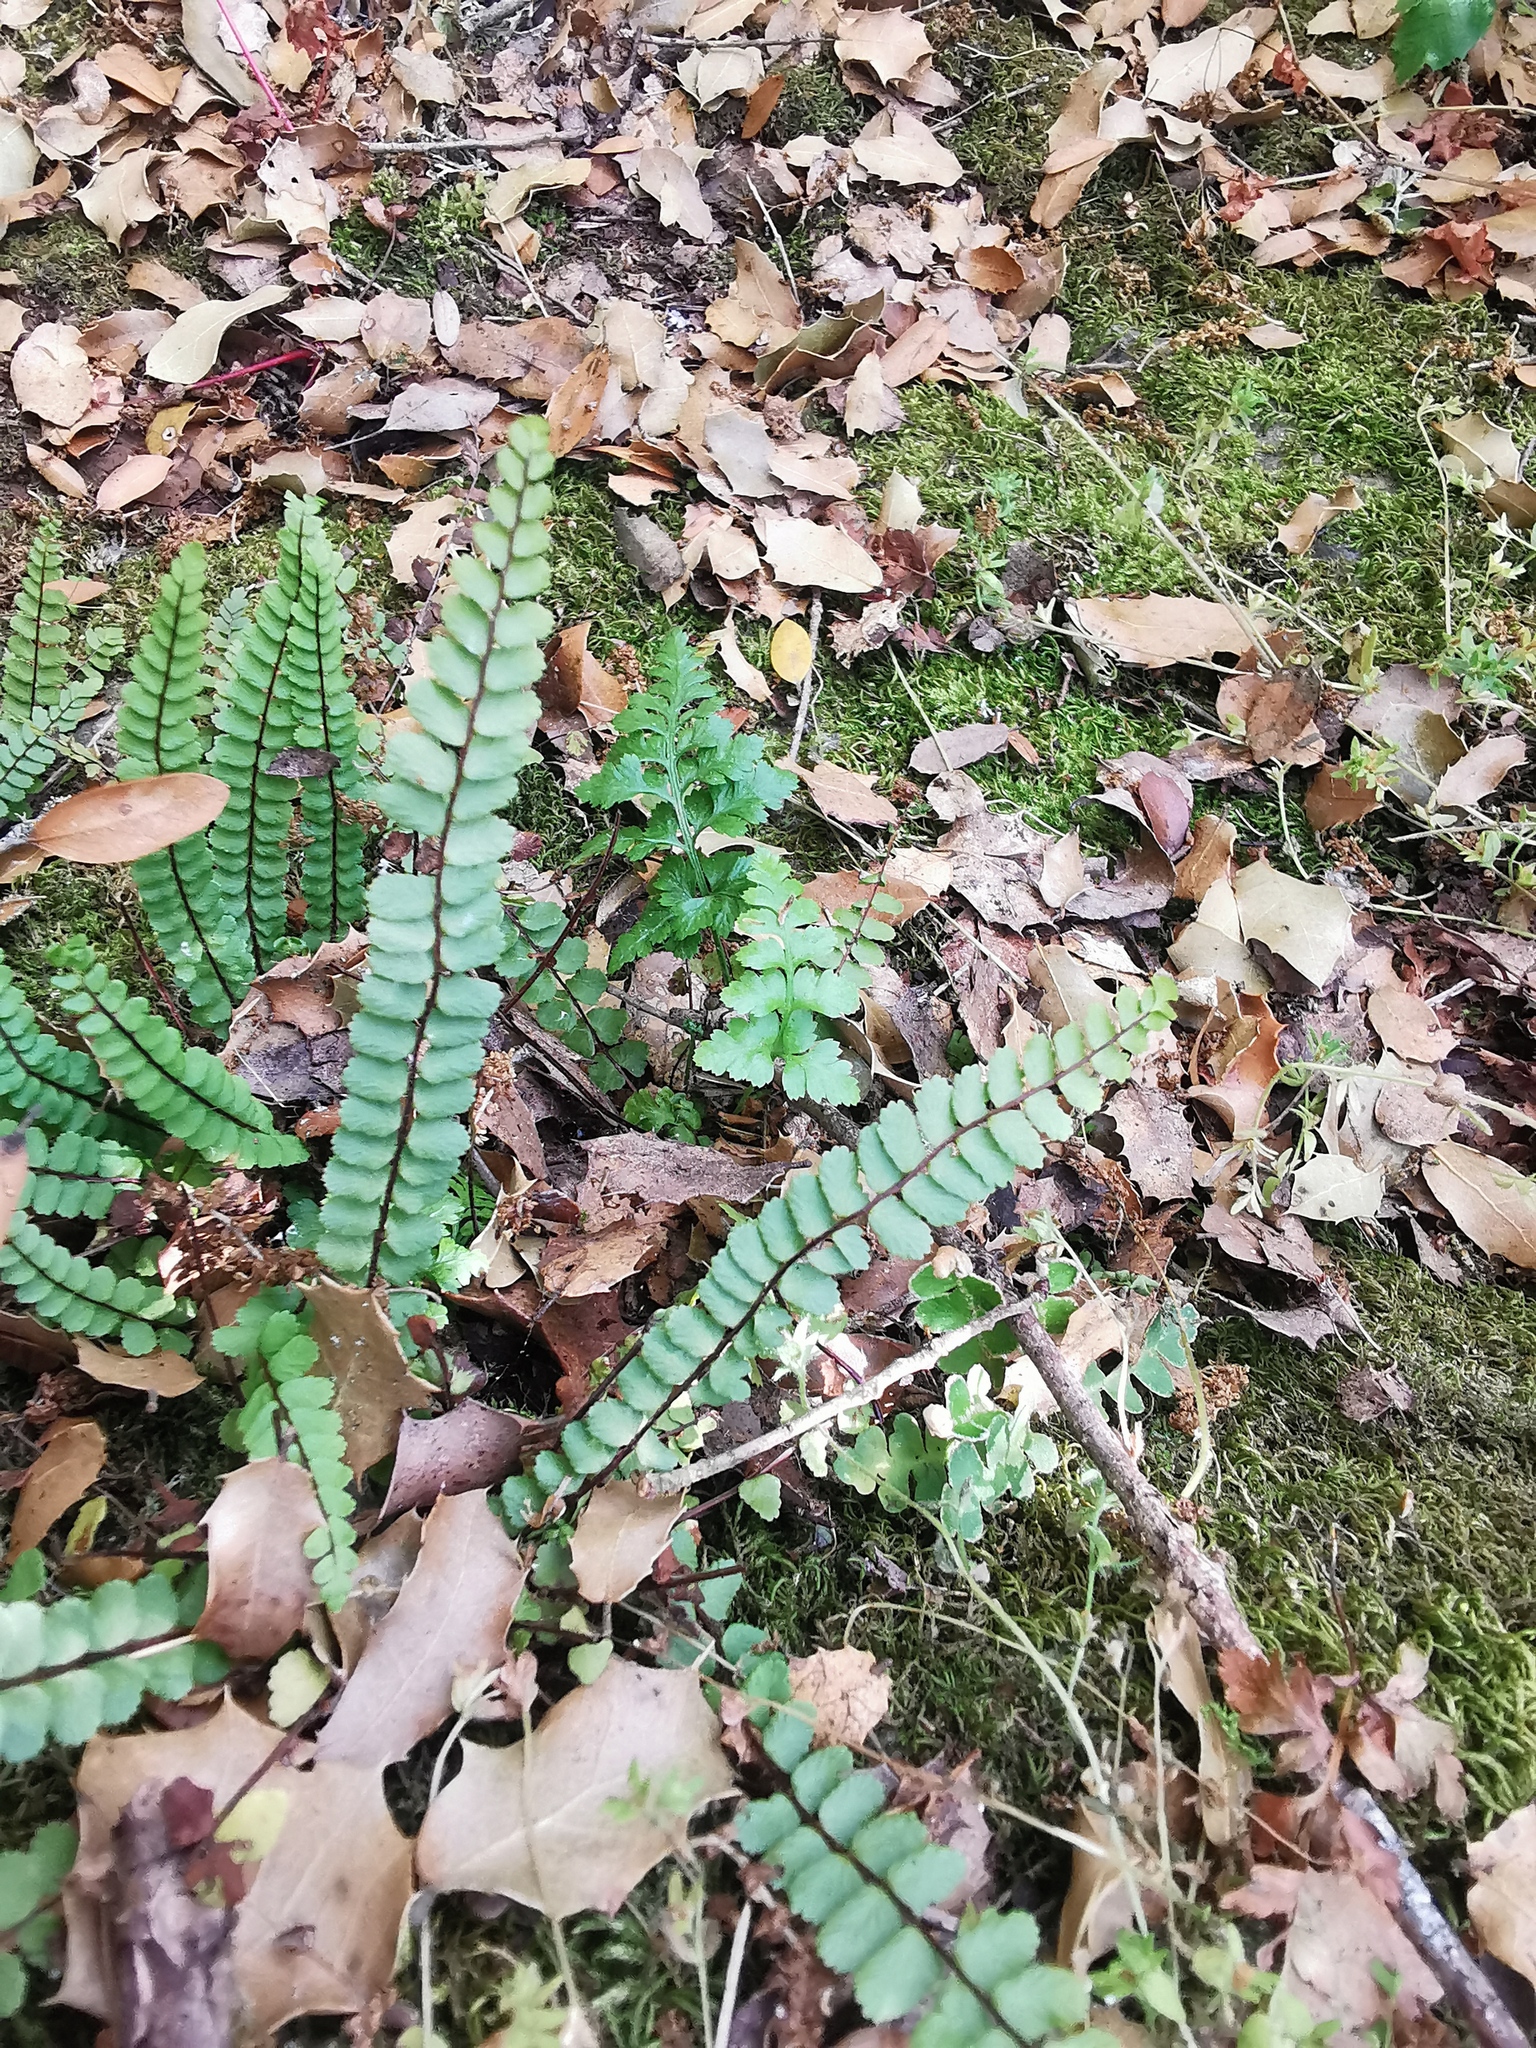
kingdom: Plantae
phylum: Tracheophyta
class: Polypodiopsida
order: Polypodiales
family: Aspleniaceae
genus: Asplenium
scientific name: Asplenium trichomanes
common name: Maidenhair spleenwort
